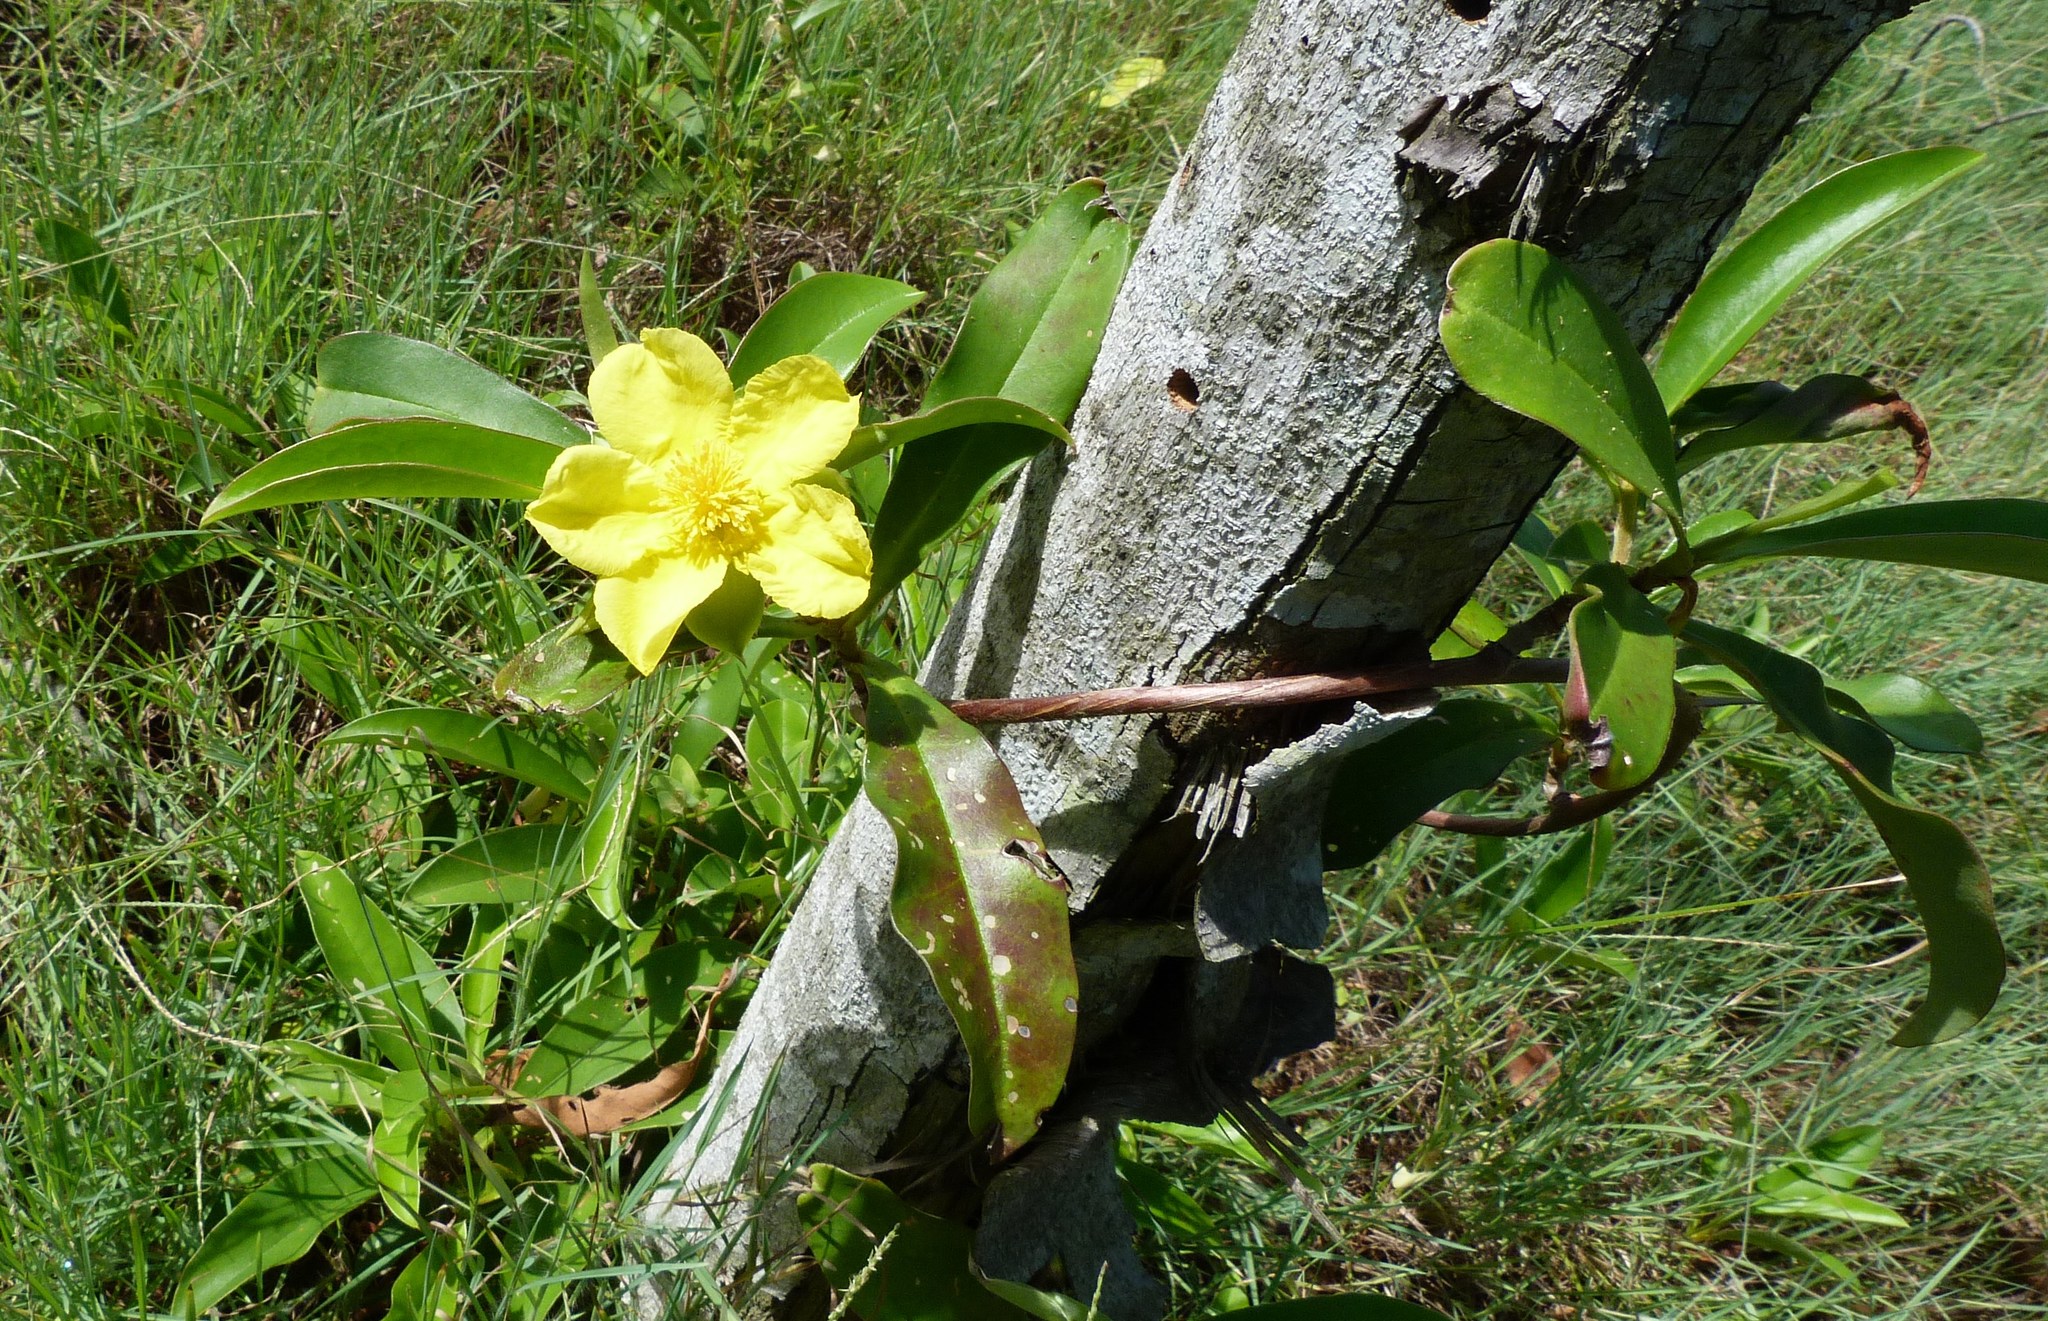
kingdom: Plantae
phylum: Tracheophyta
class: Magnoliopsida
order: Dilleniales
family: Dilleniaceae
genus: Hibbertia
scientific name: Hibbertia scandens
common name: Climbing guinea-flower
